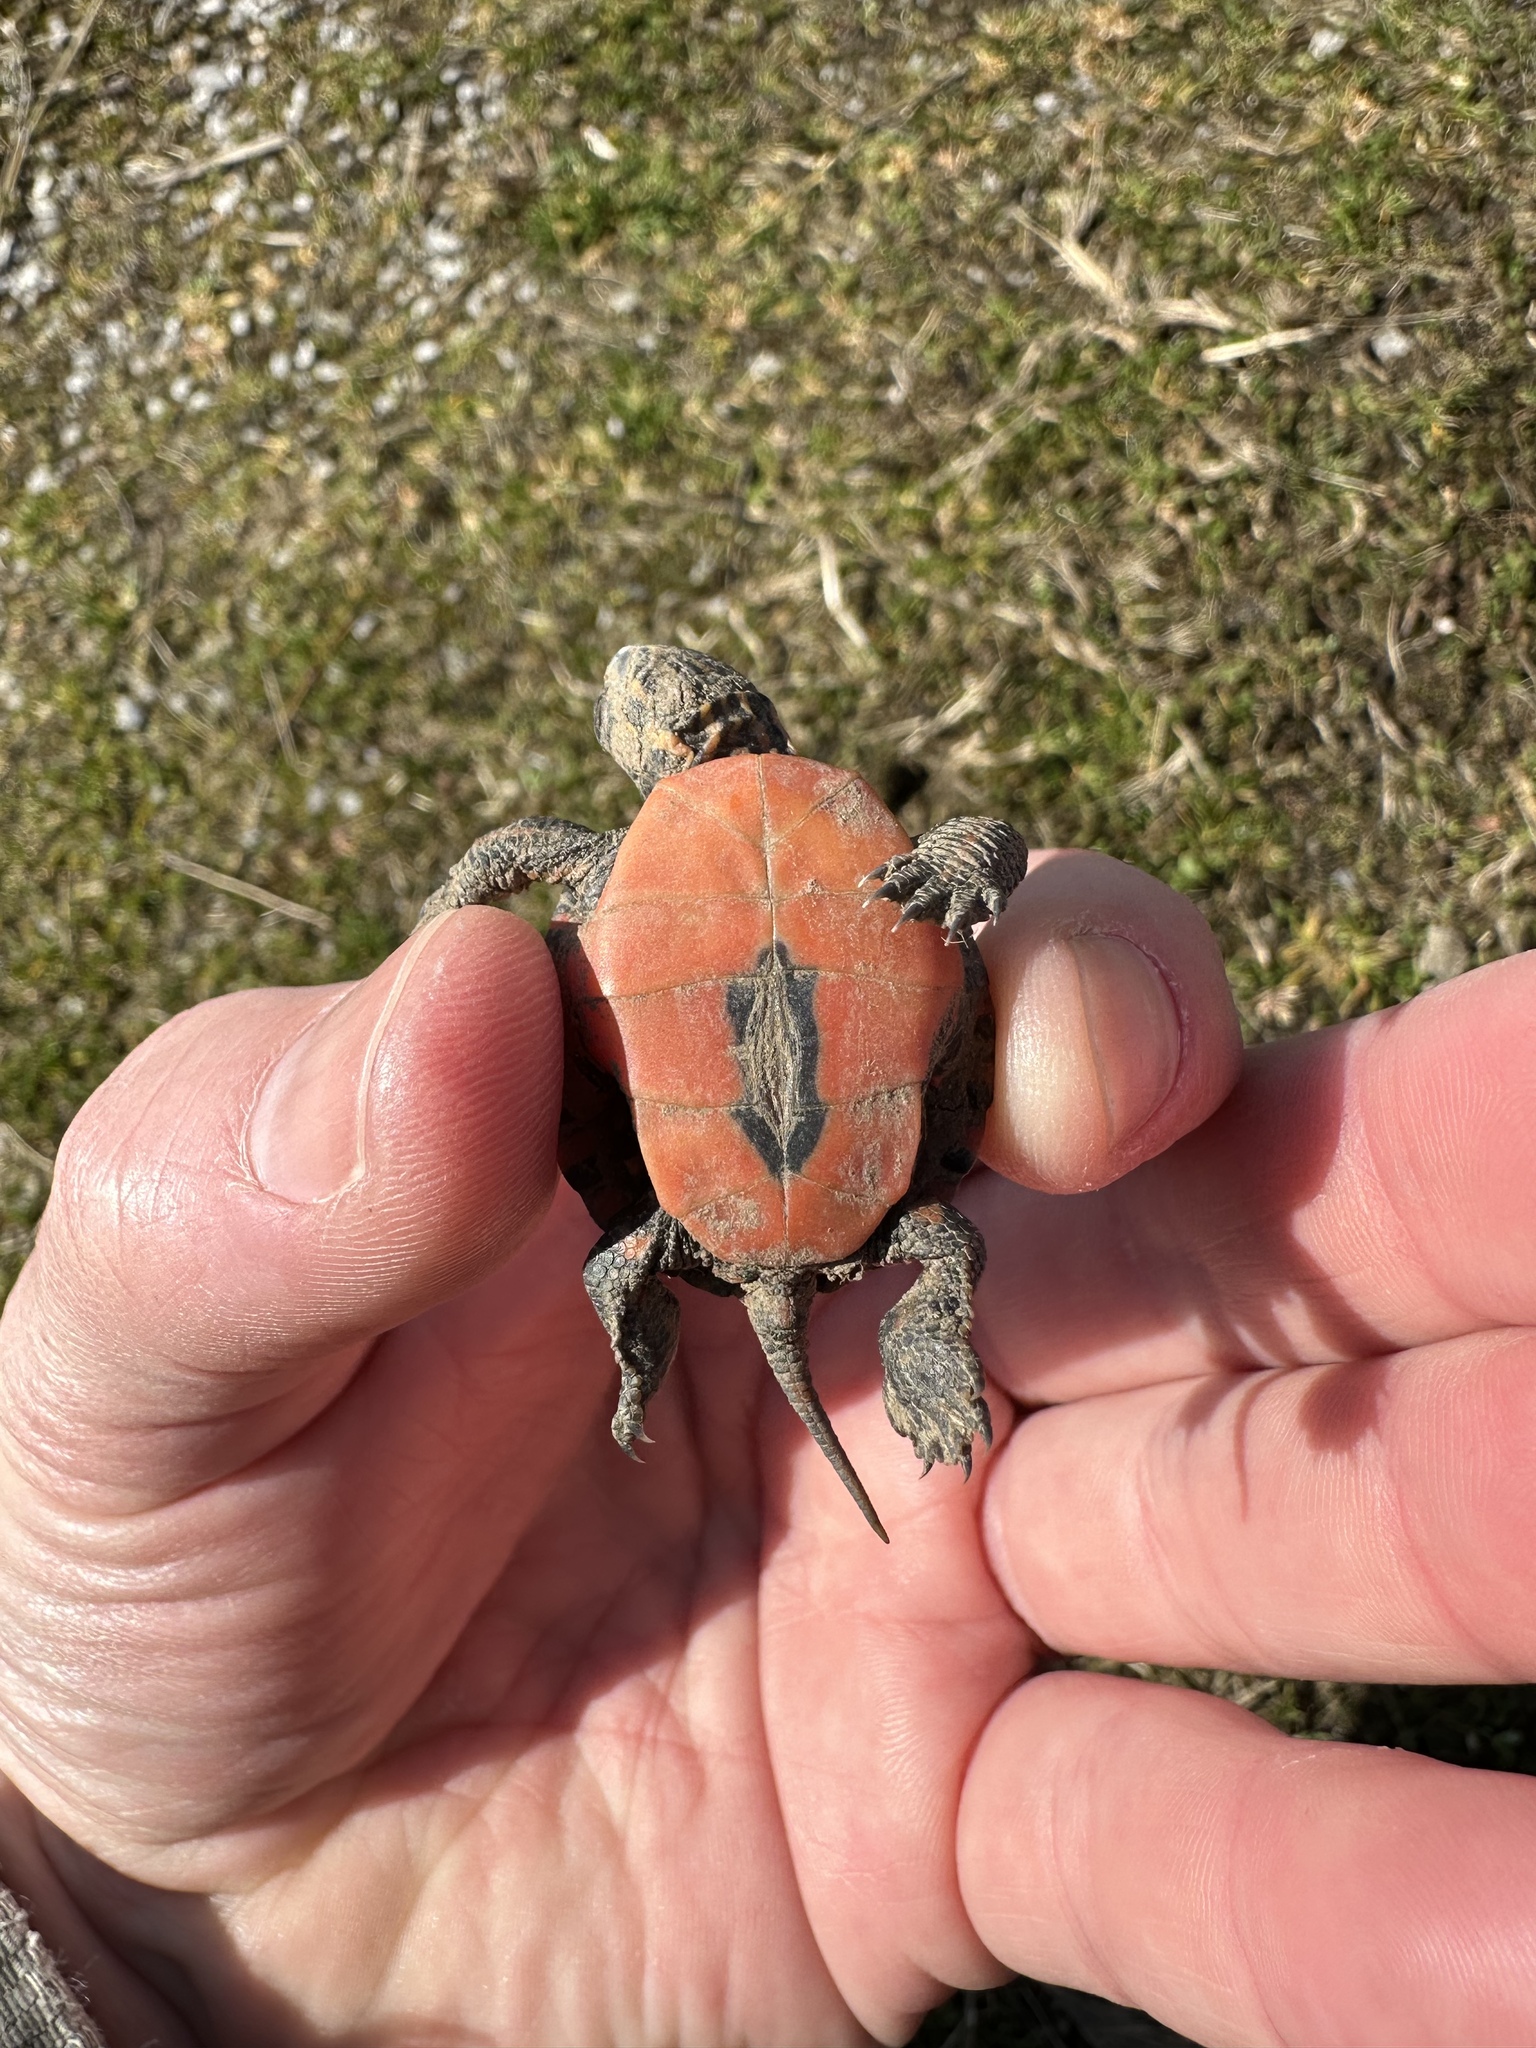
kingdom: Animalia
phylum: Chordata
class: Testudines
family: Emydidae
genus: Chrysemys
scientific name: Chrysemys picta
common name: Painted turtle
